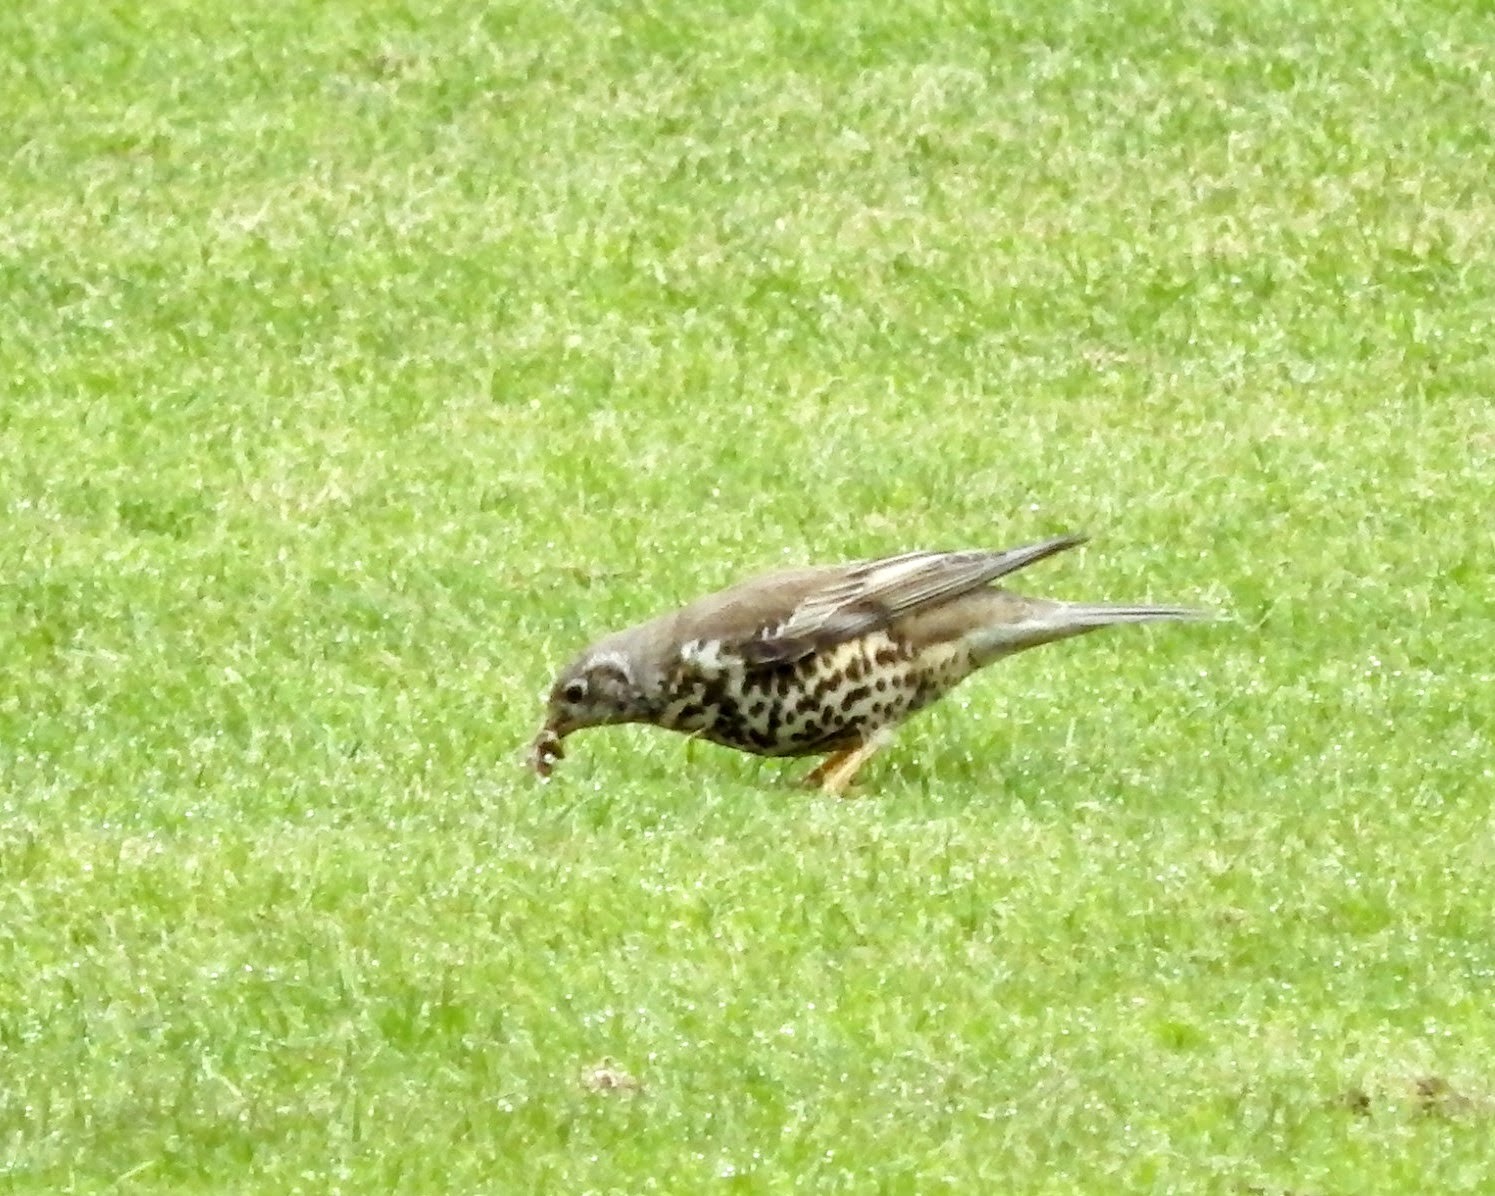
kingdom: Animalia
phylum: Chordata
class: Aves
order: Passeriformes
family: Turdidae
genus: Turdus
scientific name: Turdus viscivorus
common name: Mistle thrush
